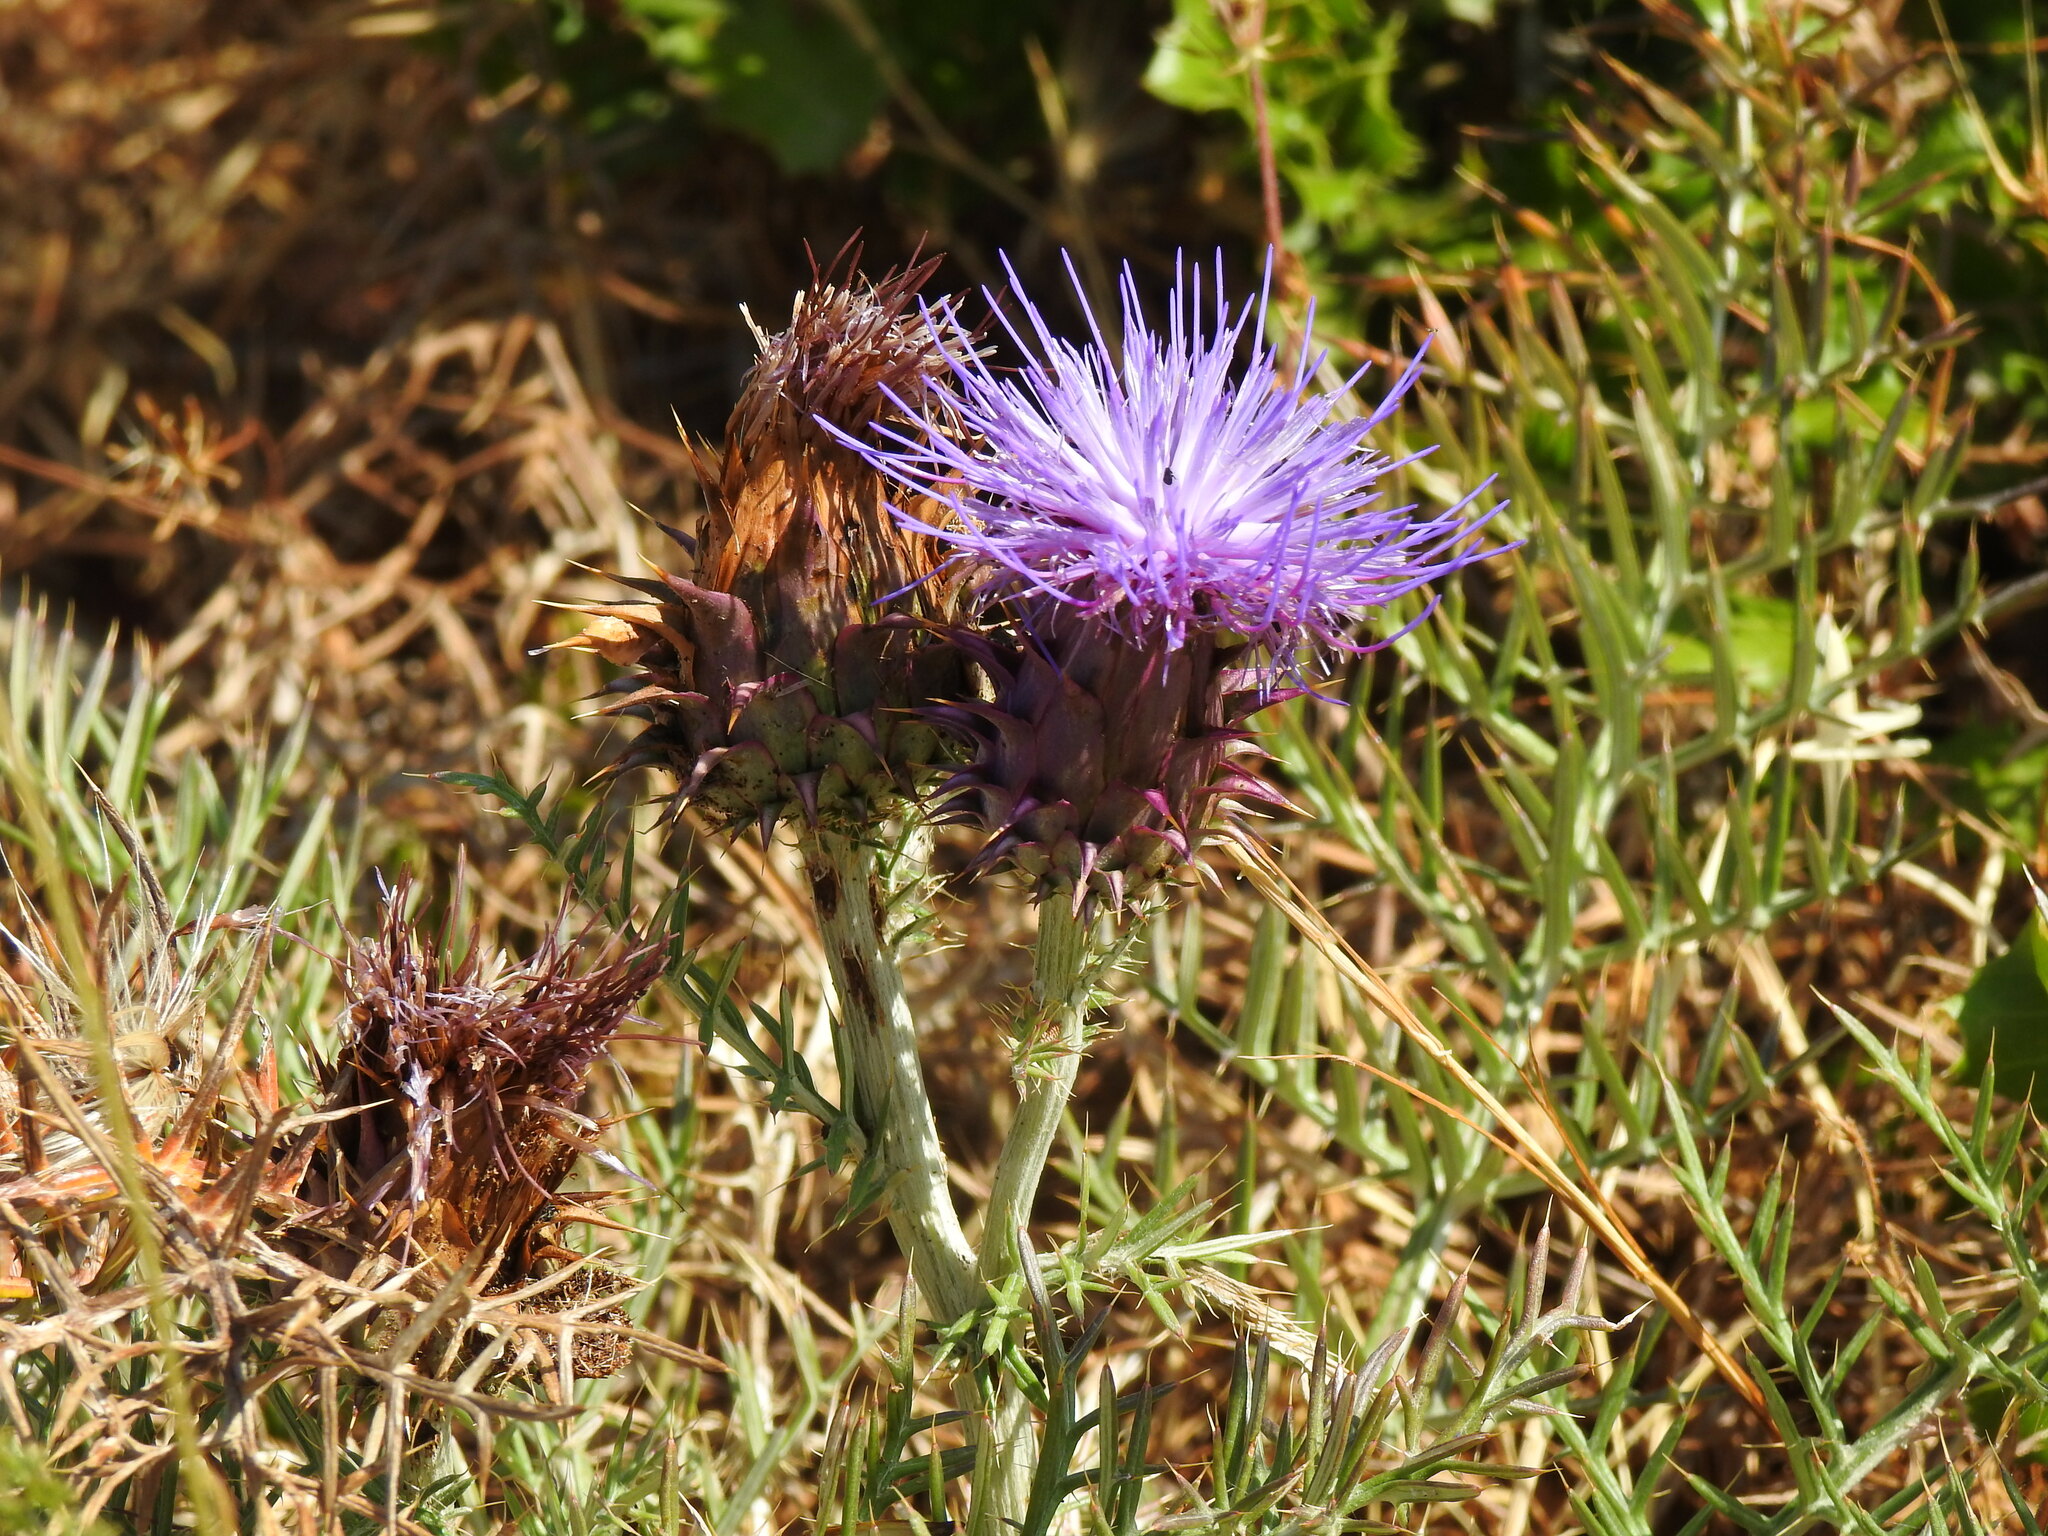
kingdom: Plantae
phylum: Tracheophyta
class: Magnoliopsida
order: Asterales
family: Asteraceae
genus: Cynara
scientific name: Cynara humilis
